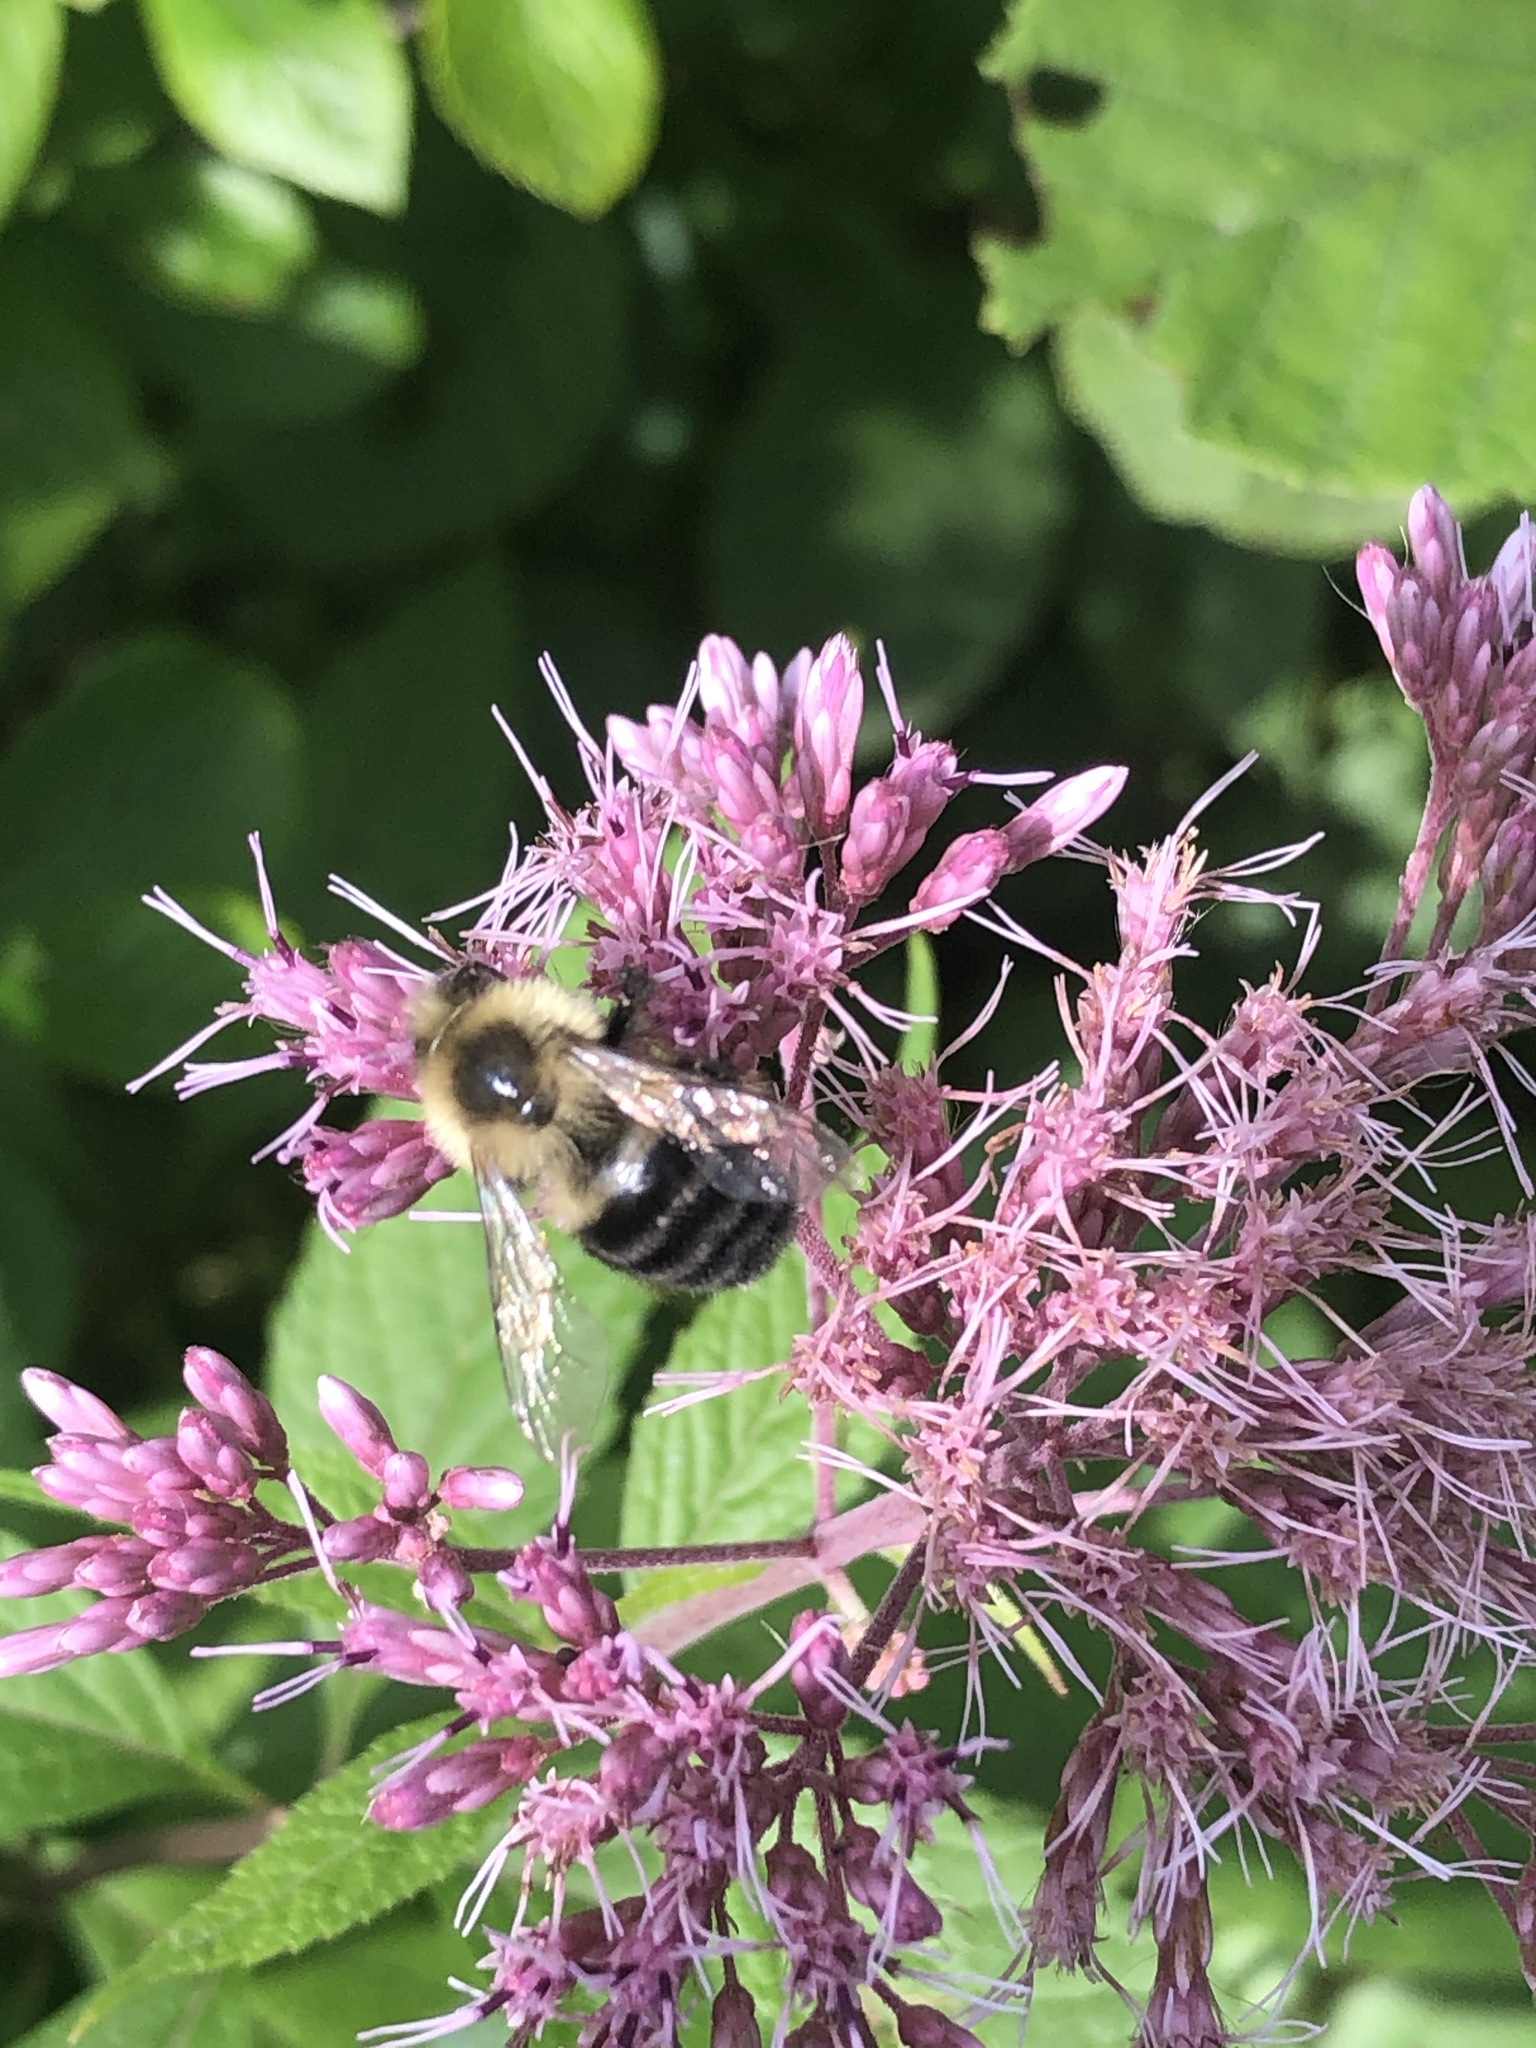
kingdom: Animalia
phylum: Arthropoda
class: Insecta
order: Hymenoptera
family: Apidae
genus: Bombus
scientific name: Bombus impatiens
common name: Common eastern bumble bee
